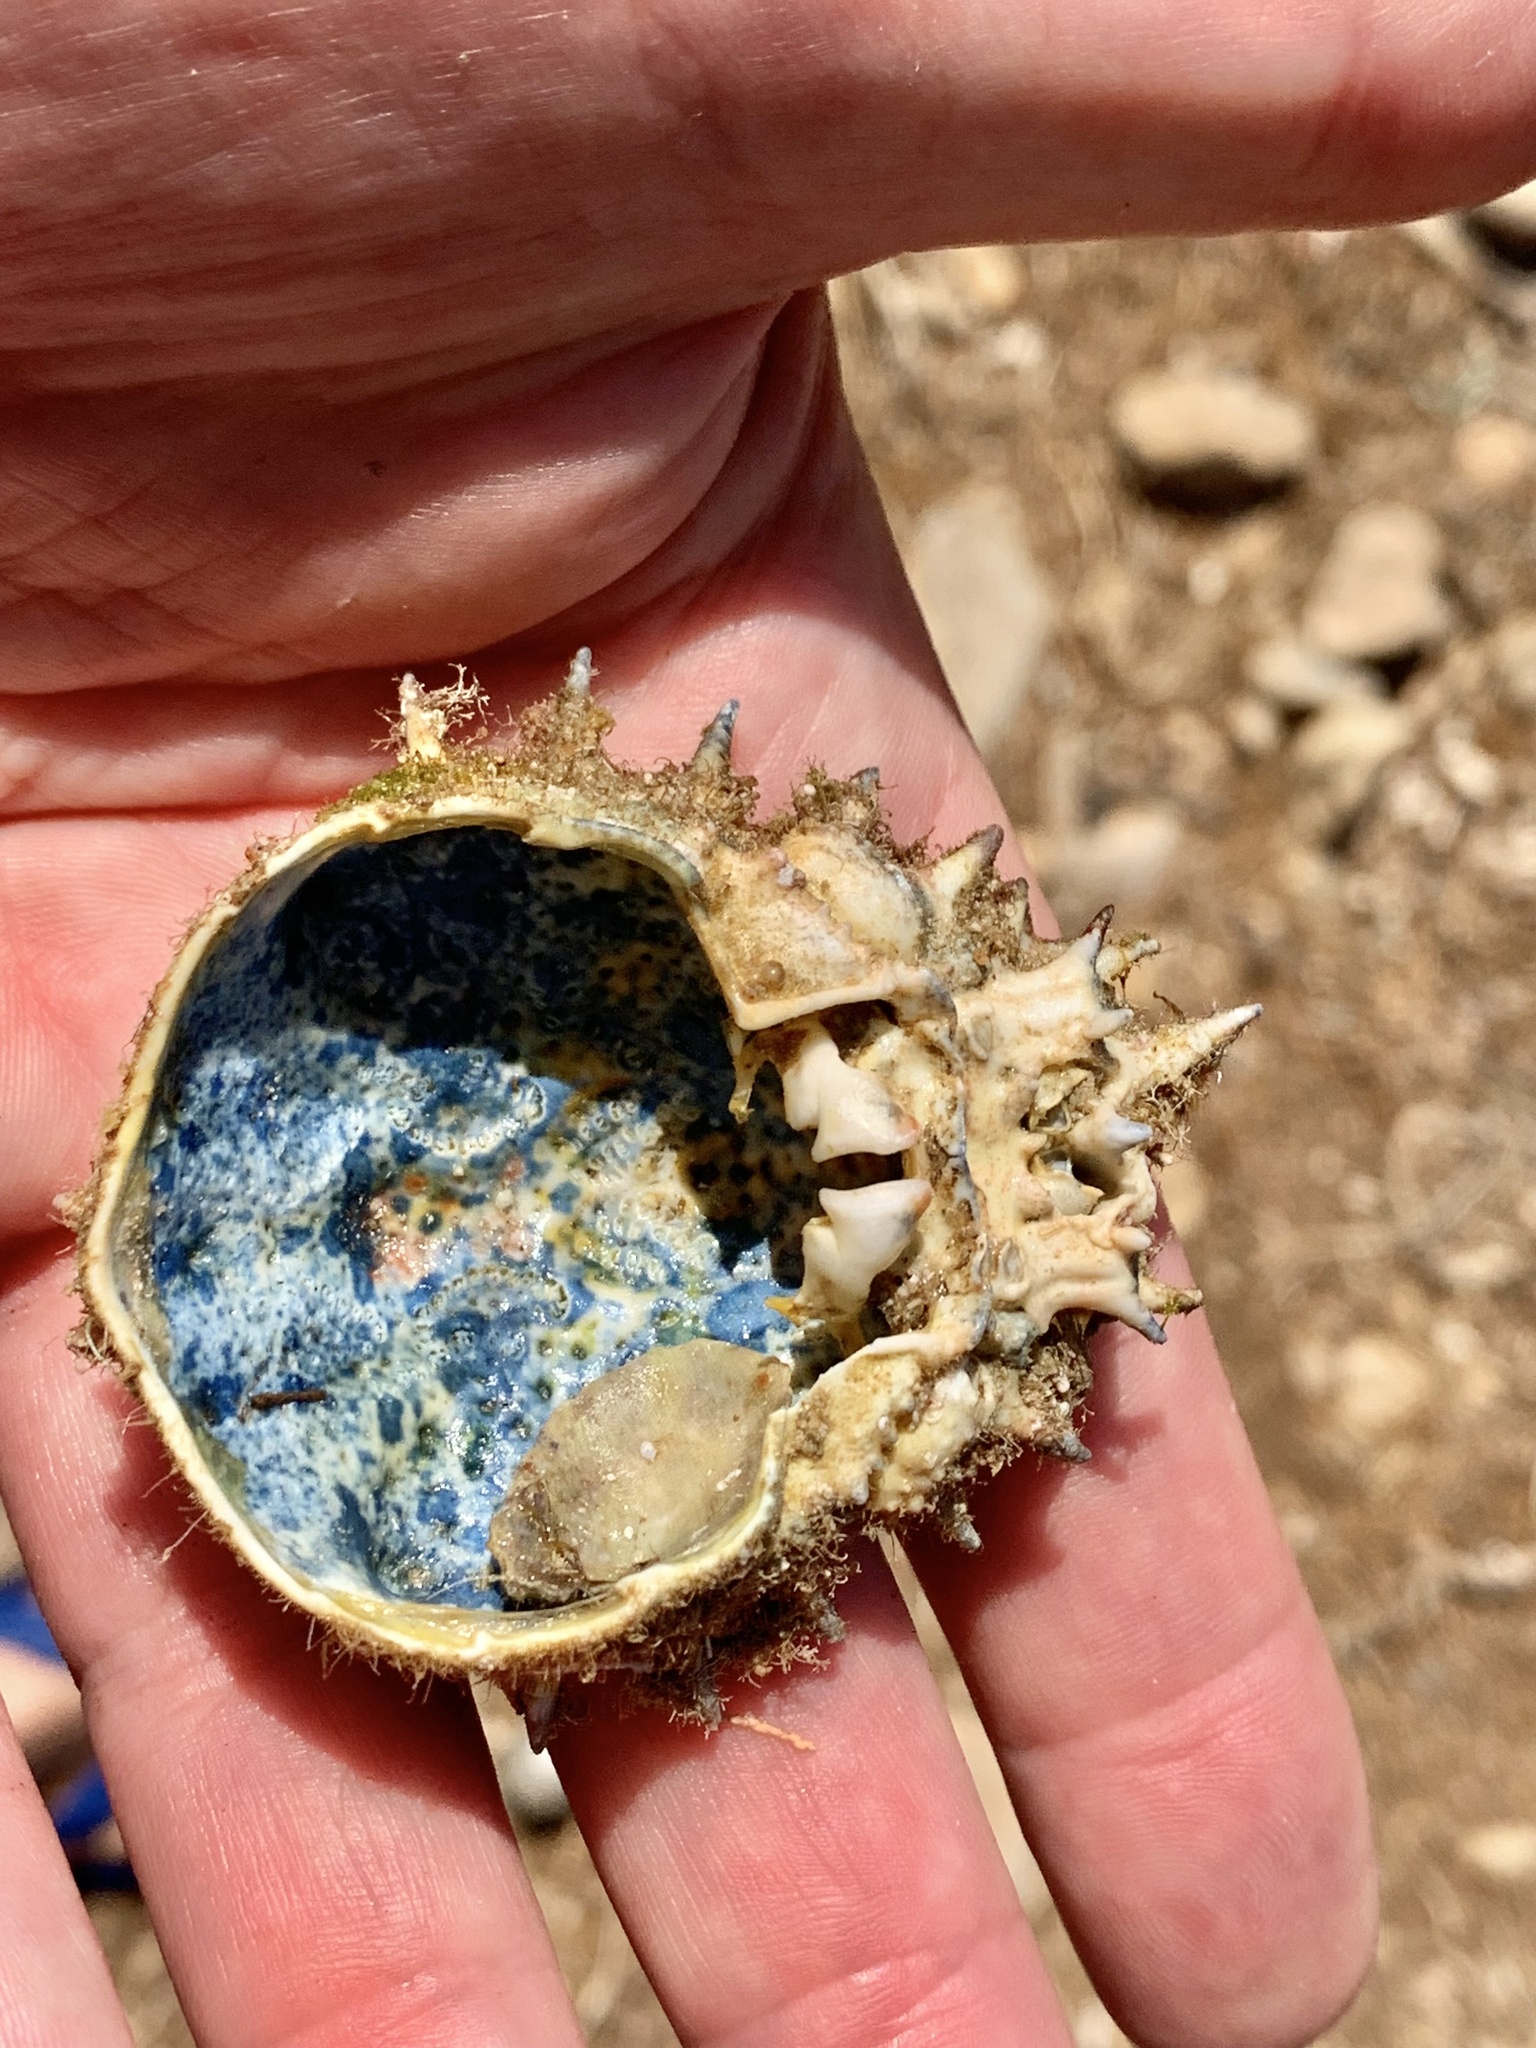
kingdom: Animalia
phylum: Arthropoda
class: Malacostraca
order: Decapoda
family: Majidae
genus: Maja
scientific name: Maja crispata
